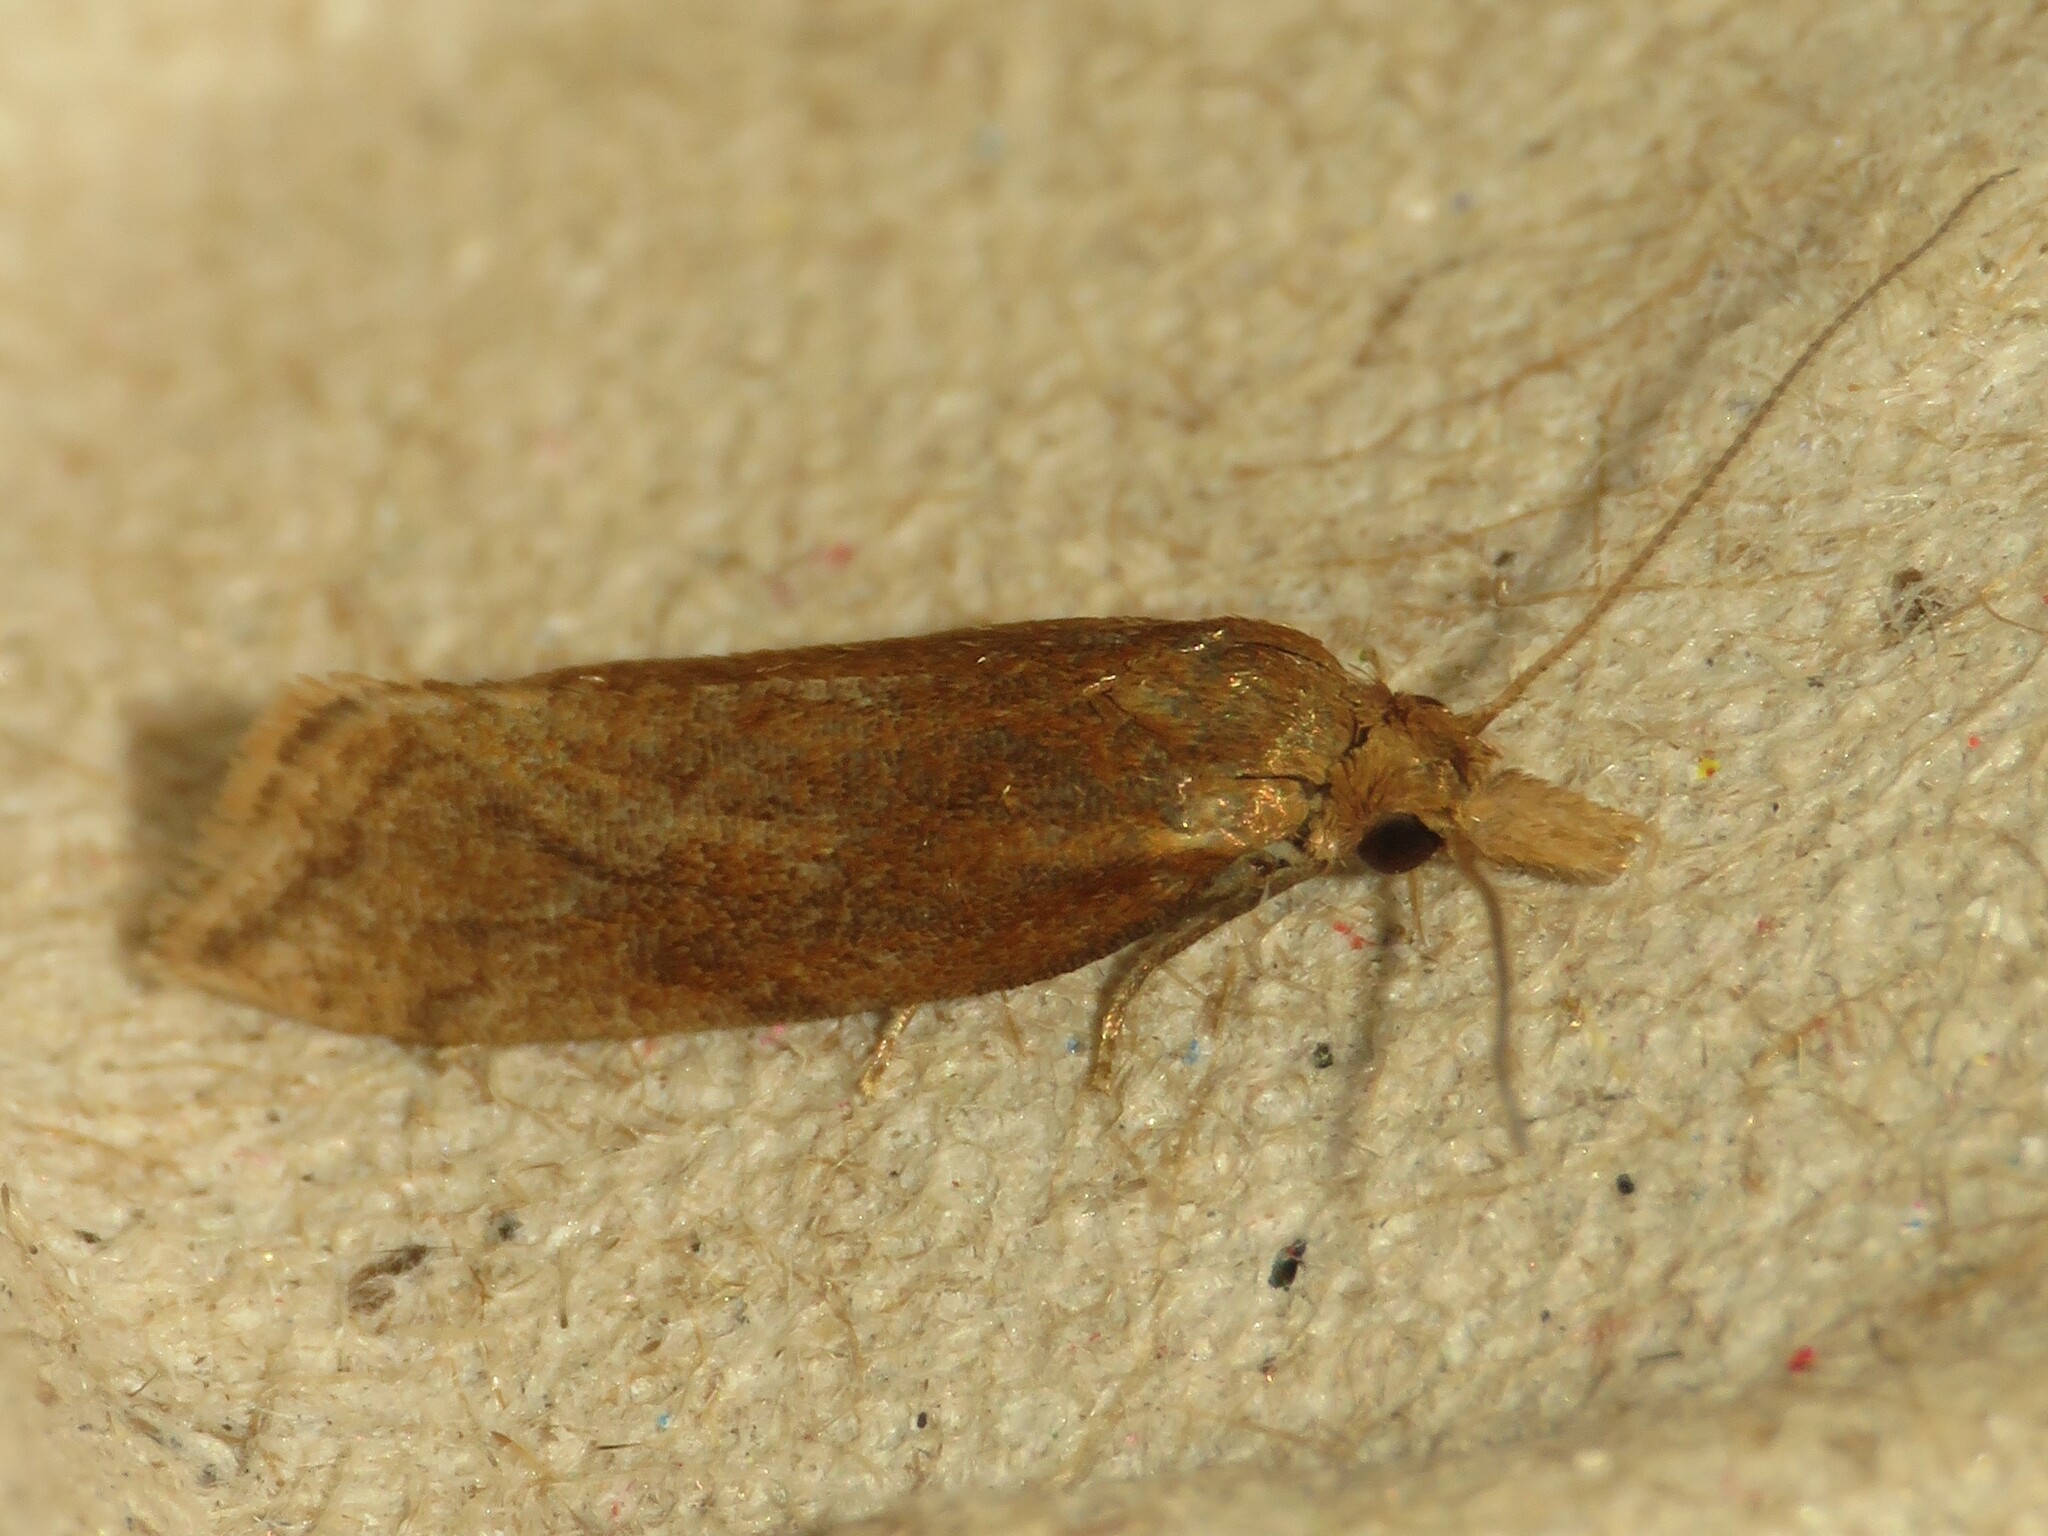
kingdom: Animalia
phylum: Arthropoda
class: Insecta
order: Lepidoptera
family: Tortricidae
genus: Aethes
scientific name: Aethes biscana
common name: Reddish aethes
